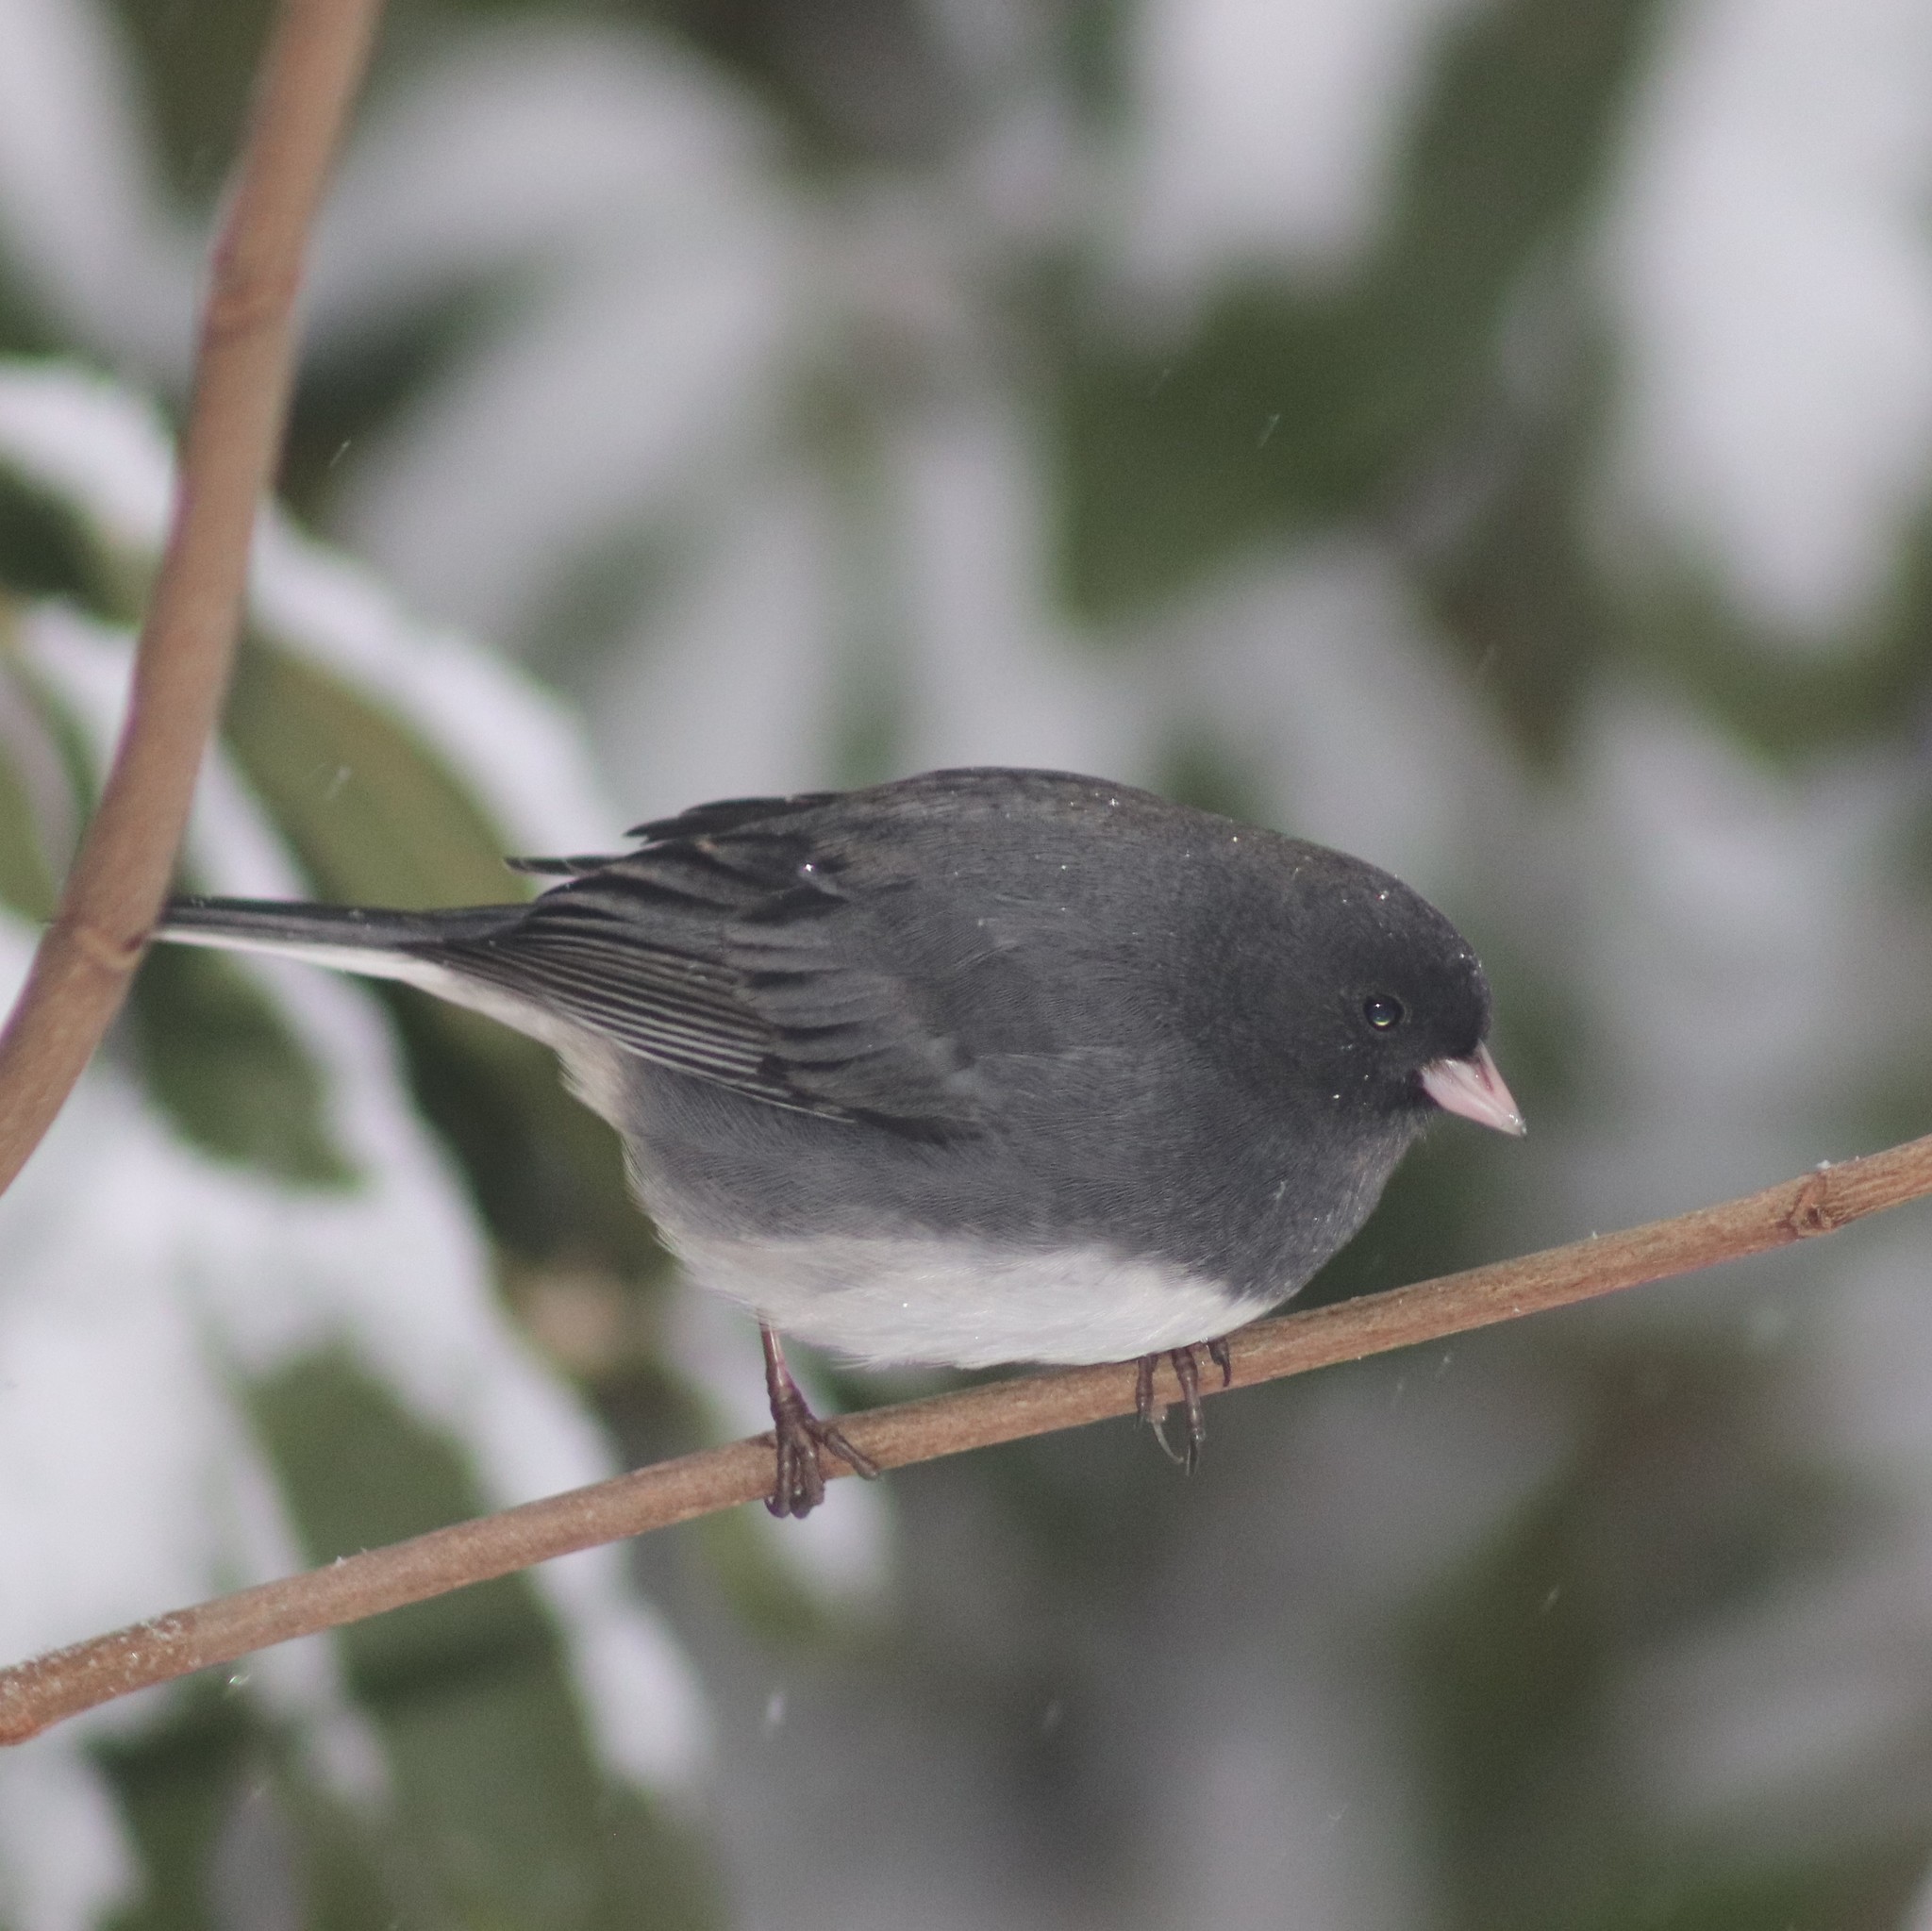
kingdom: Animalia
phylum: Chordata
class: Aves
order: Passeriformes
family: Passerellidae
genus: Junco
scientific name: Junco hyemalis
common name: Dark-eyed junco
